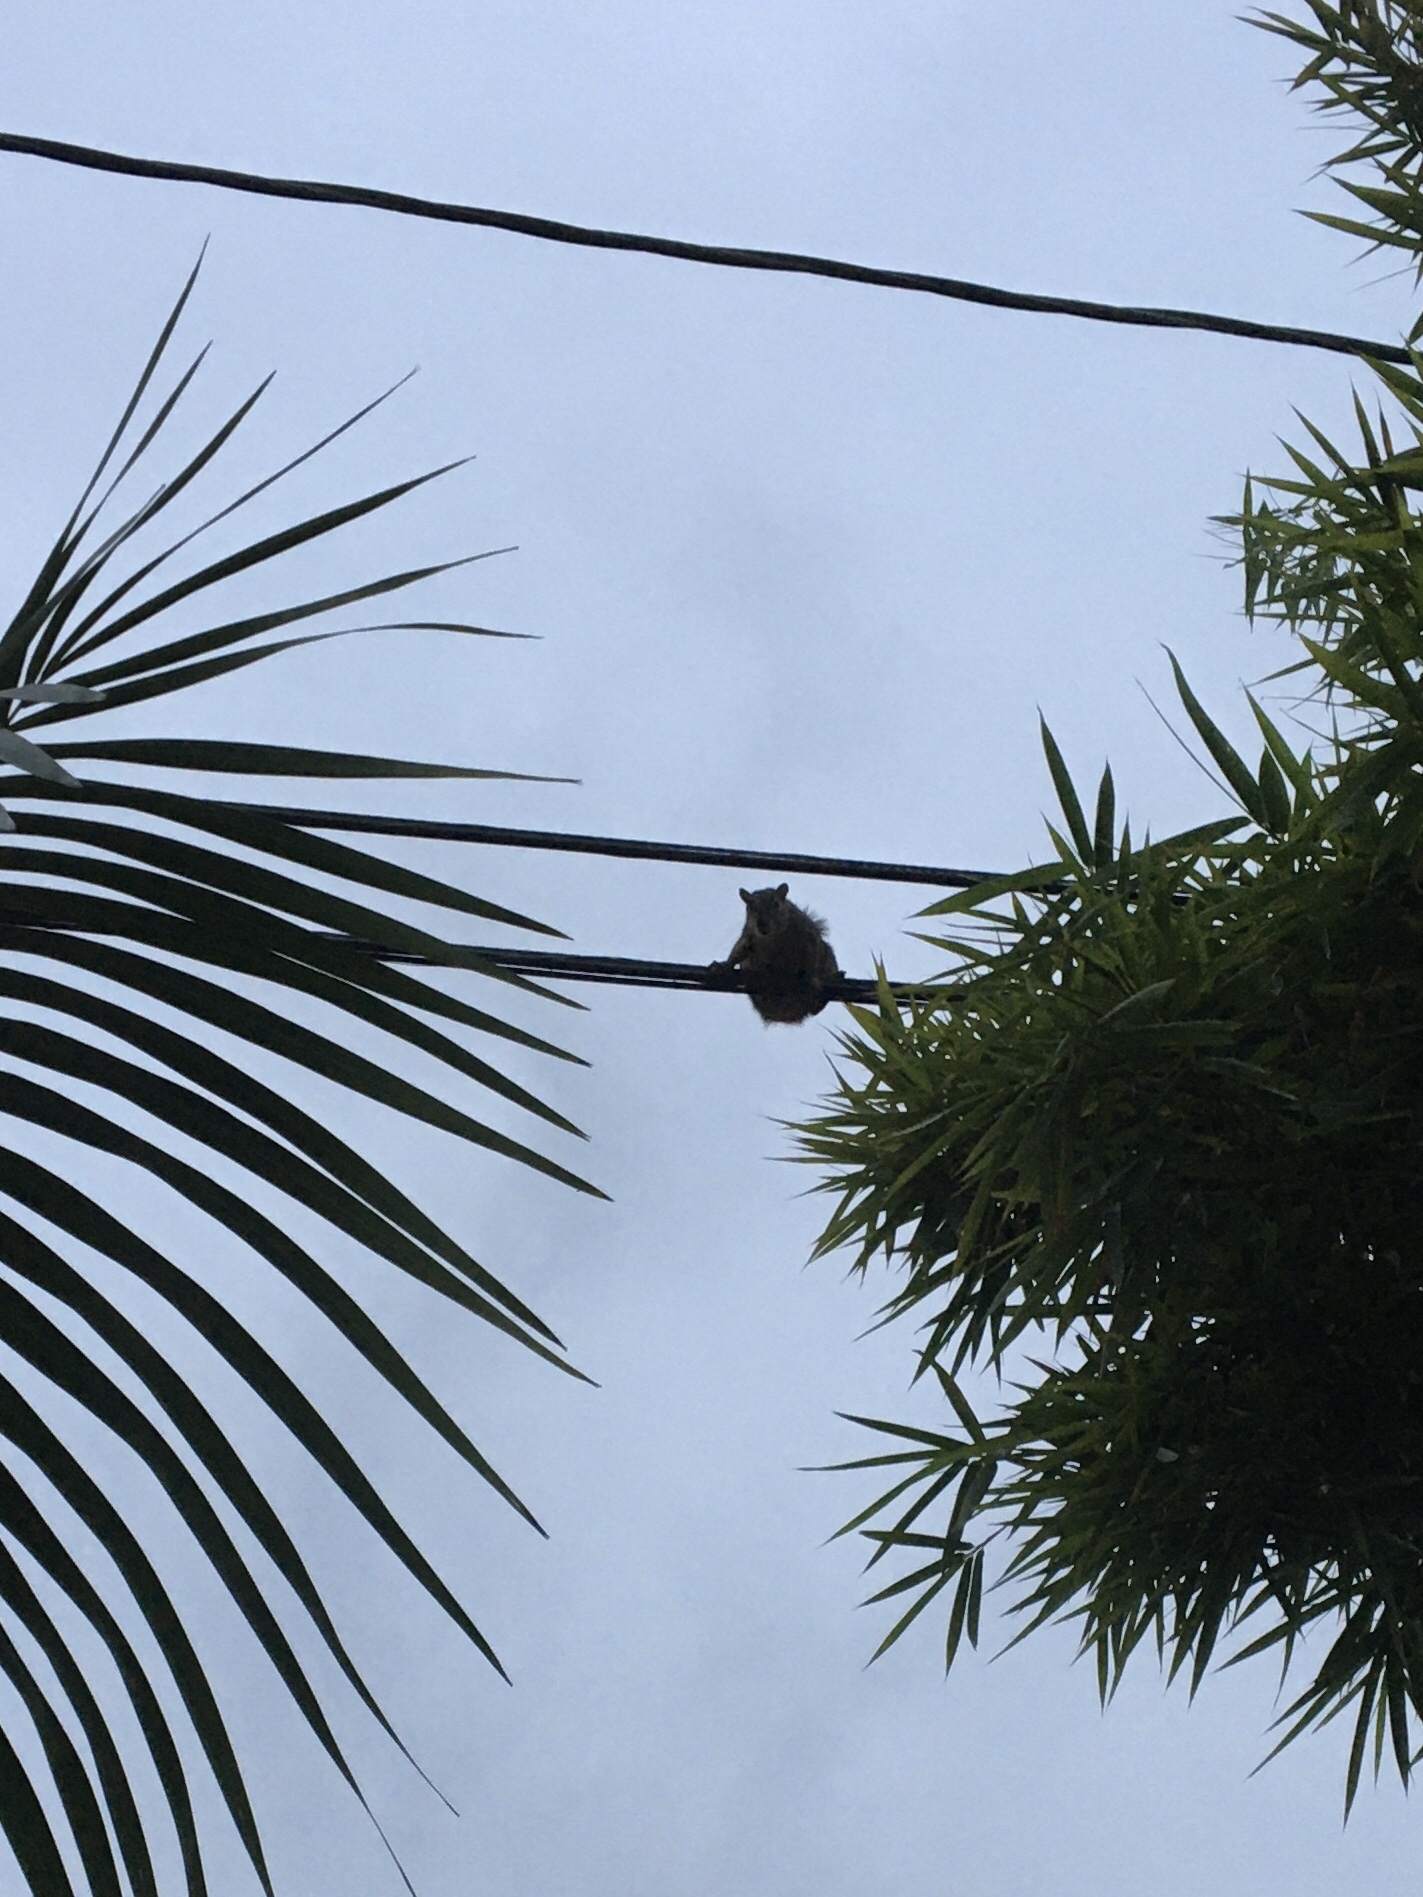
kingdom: Animalia
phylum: Chordata
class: Mammalia
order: Rodentia
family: Sciuridae
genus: Sciurus
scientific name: Sciurus niger
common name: Fox squirrel
